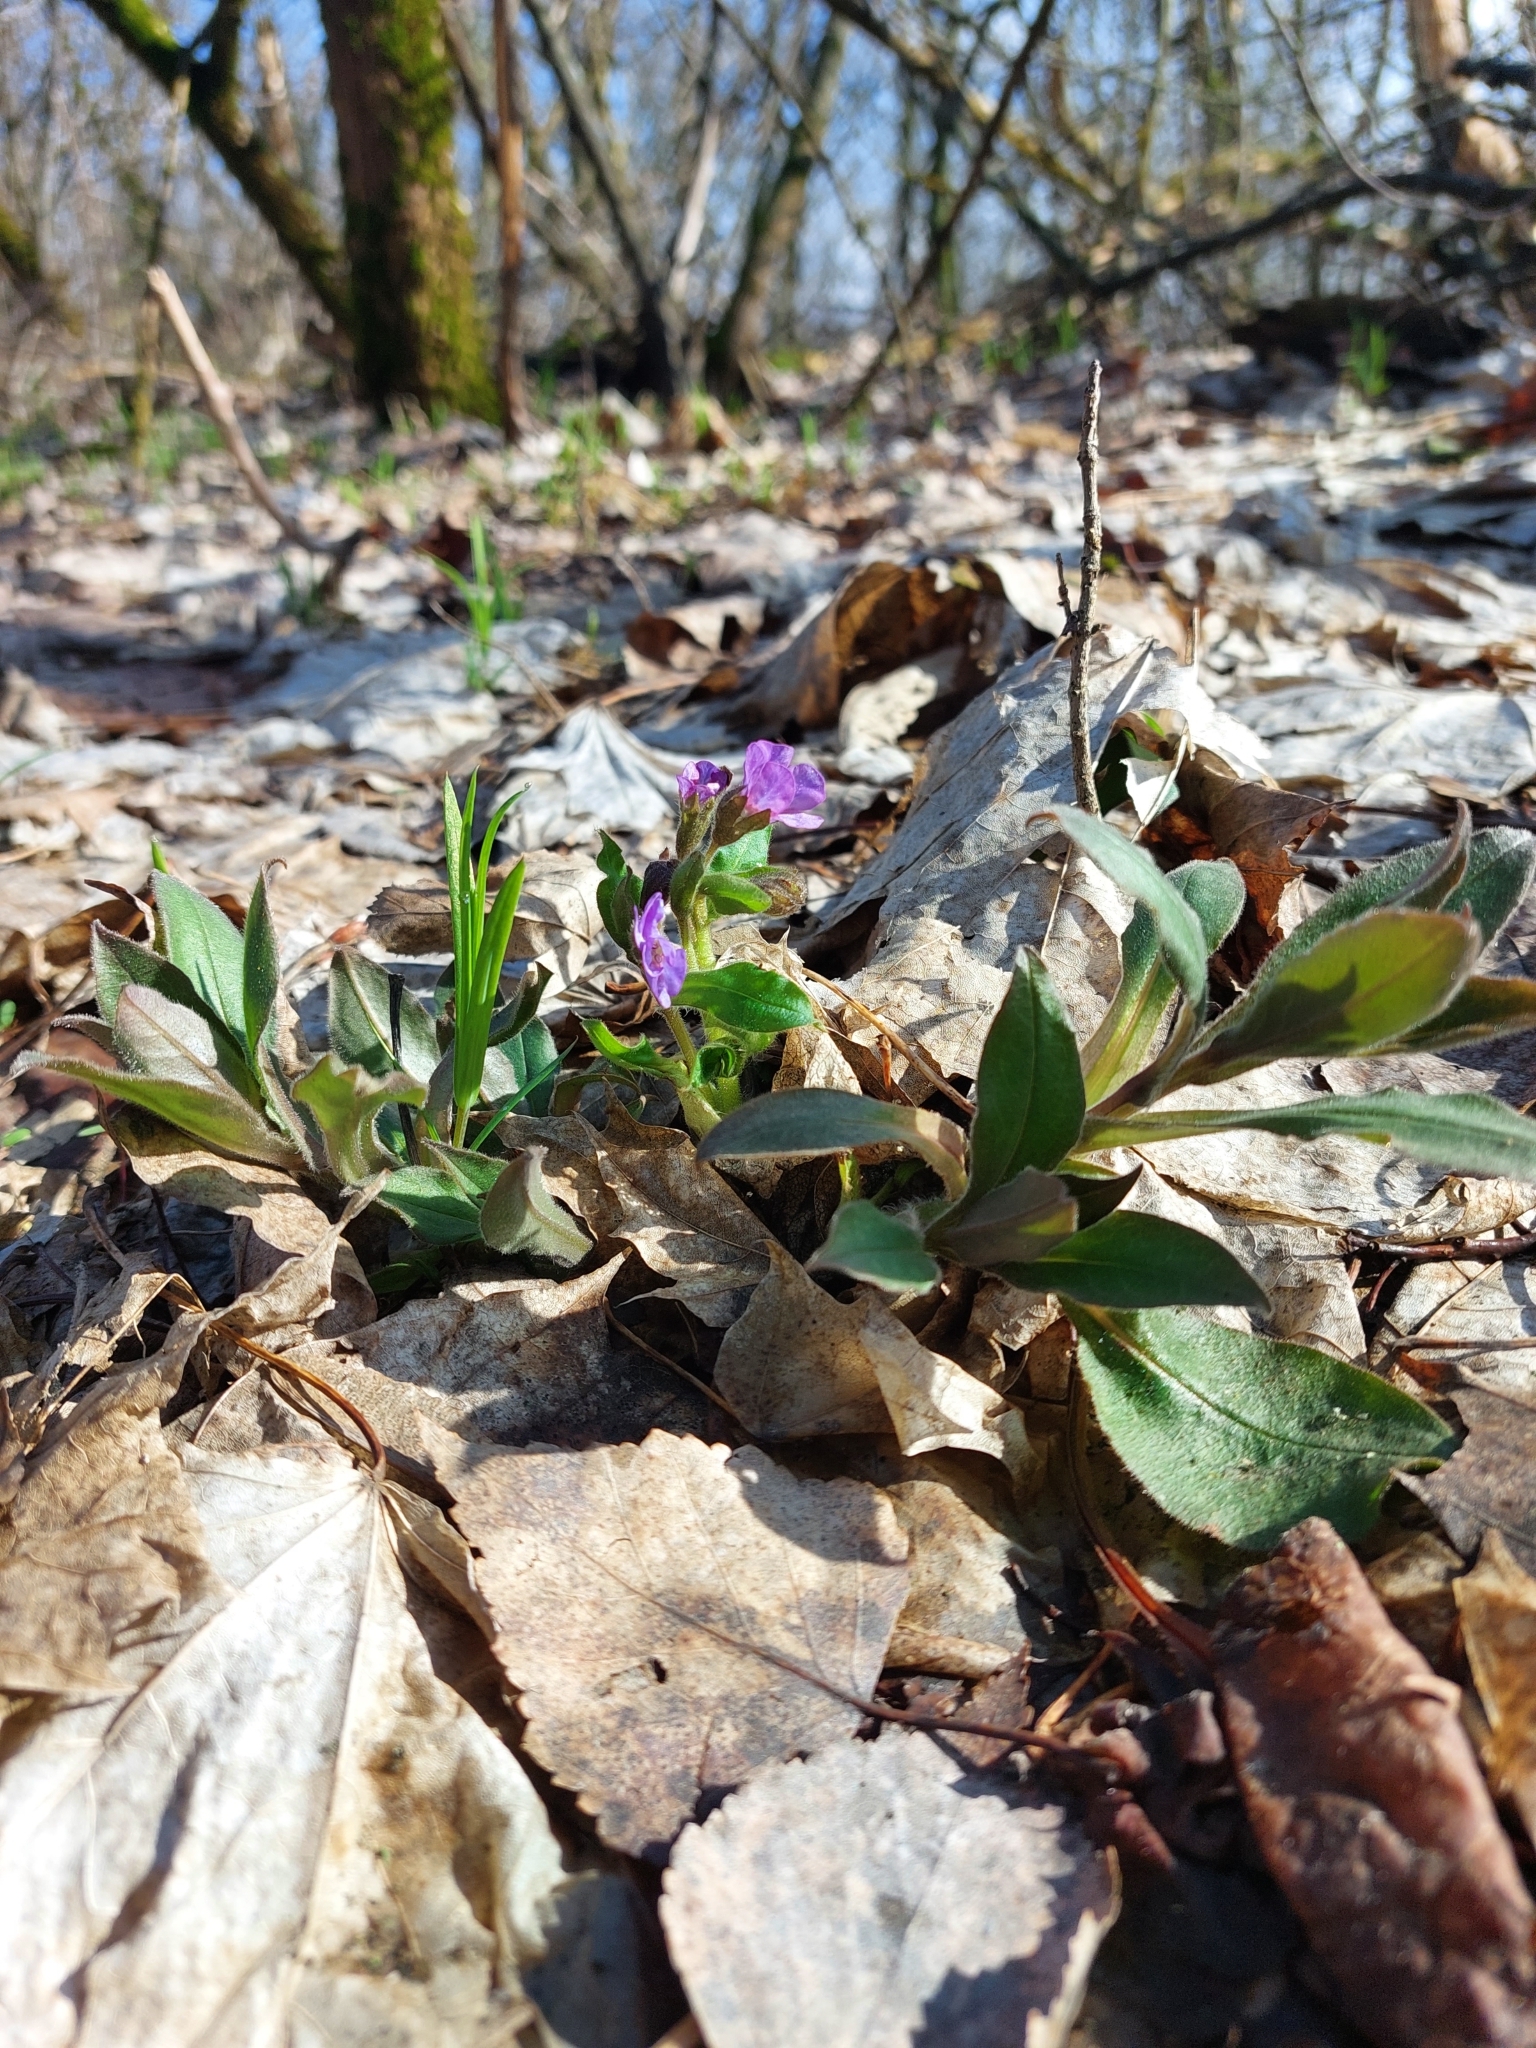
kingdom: Plantae
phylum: Tracheophyta
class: Magnoliopsida
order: Boraginales
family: Boraginaceae
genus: Pulmonaria
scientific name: Pulmonaria obscura
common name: Suffolk lungwort
